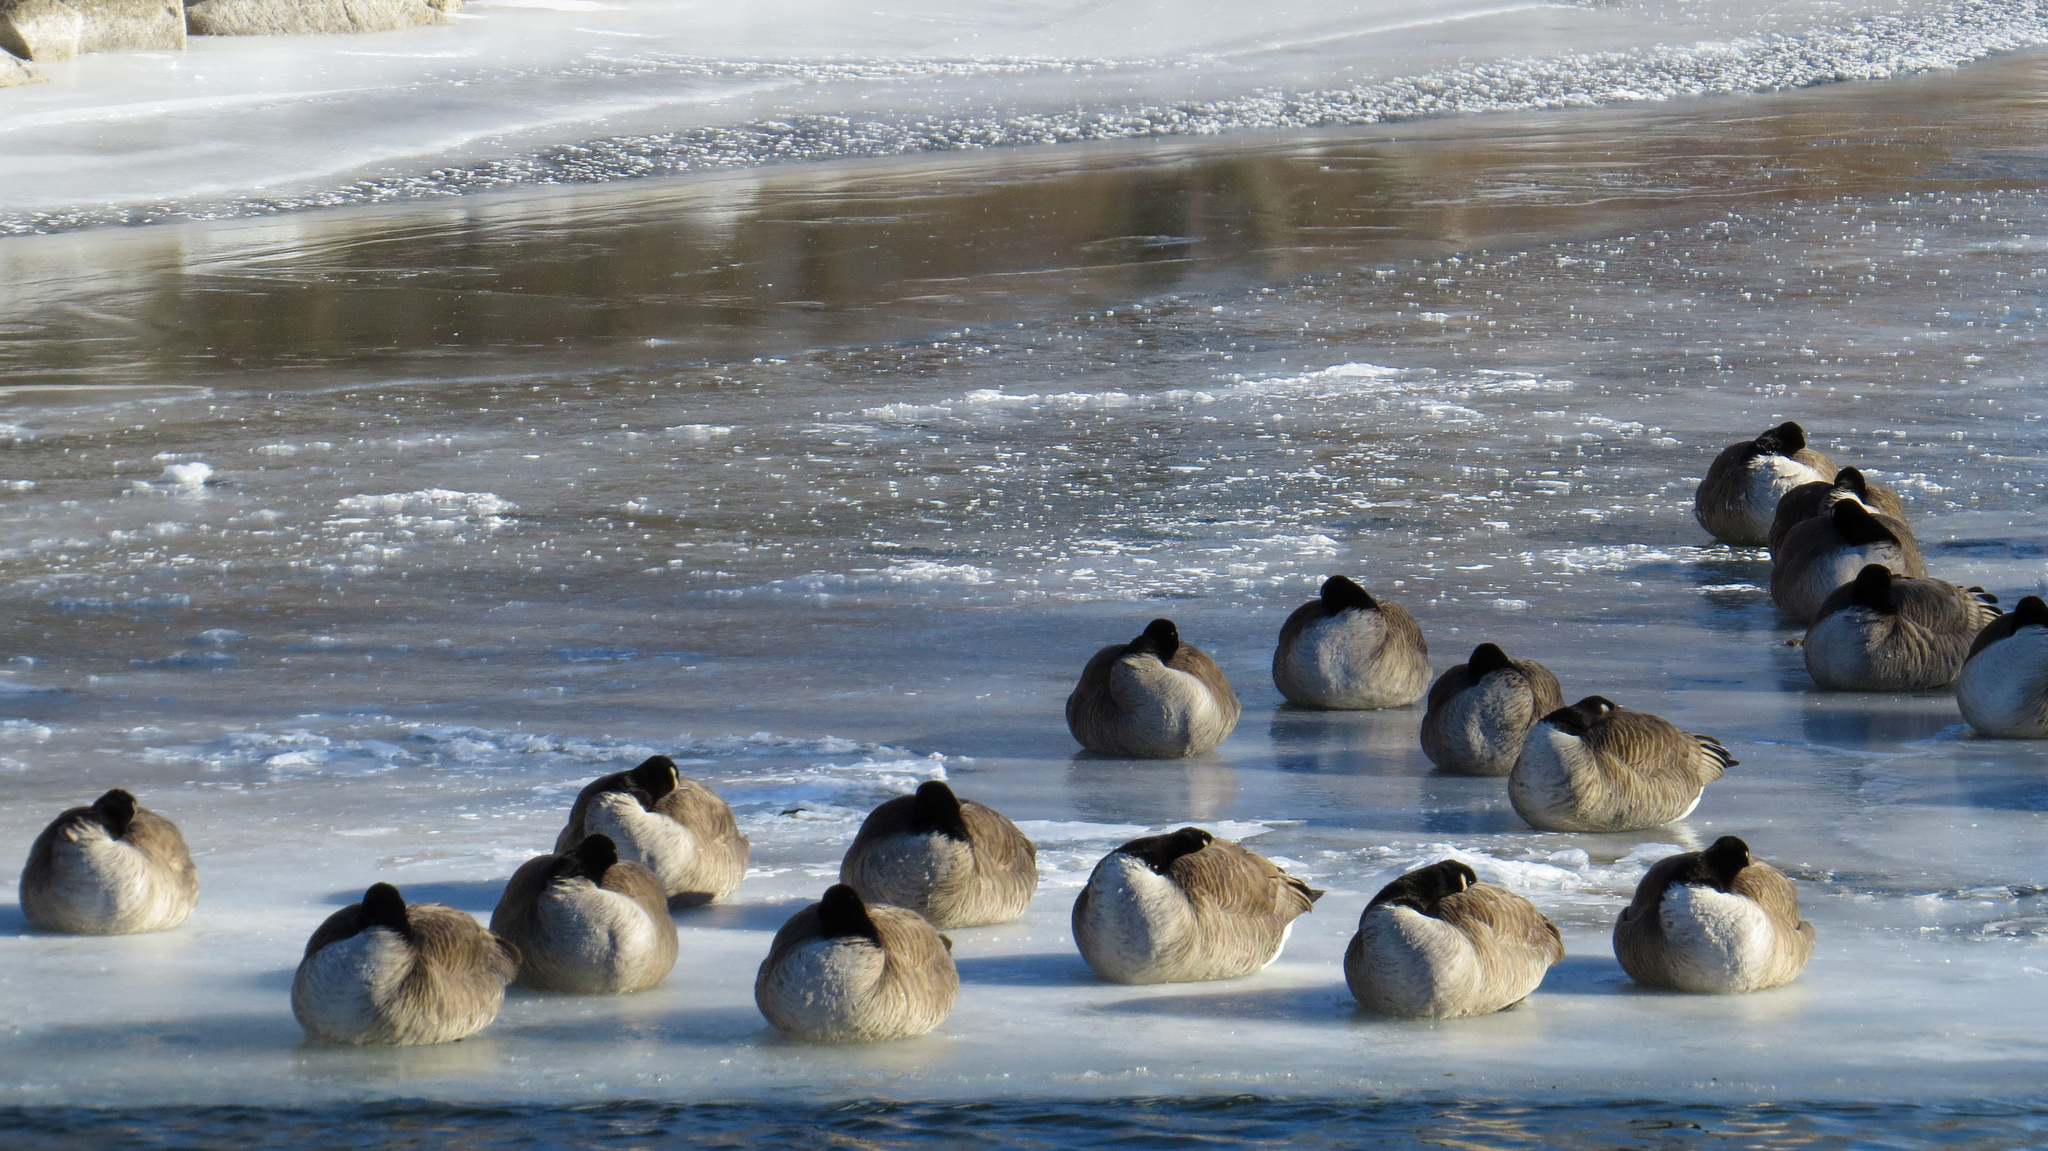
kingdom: Animalia
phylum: Chordata
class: Aves
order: Anseriformes
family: Anatidae
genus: Branta
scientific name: Branta canadensis
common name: Canada goose
